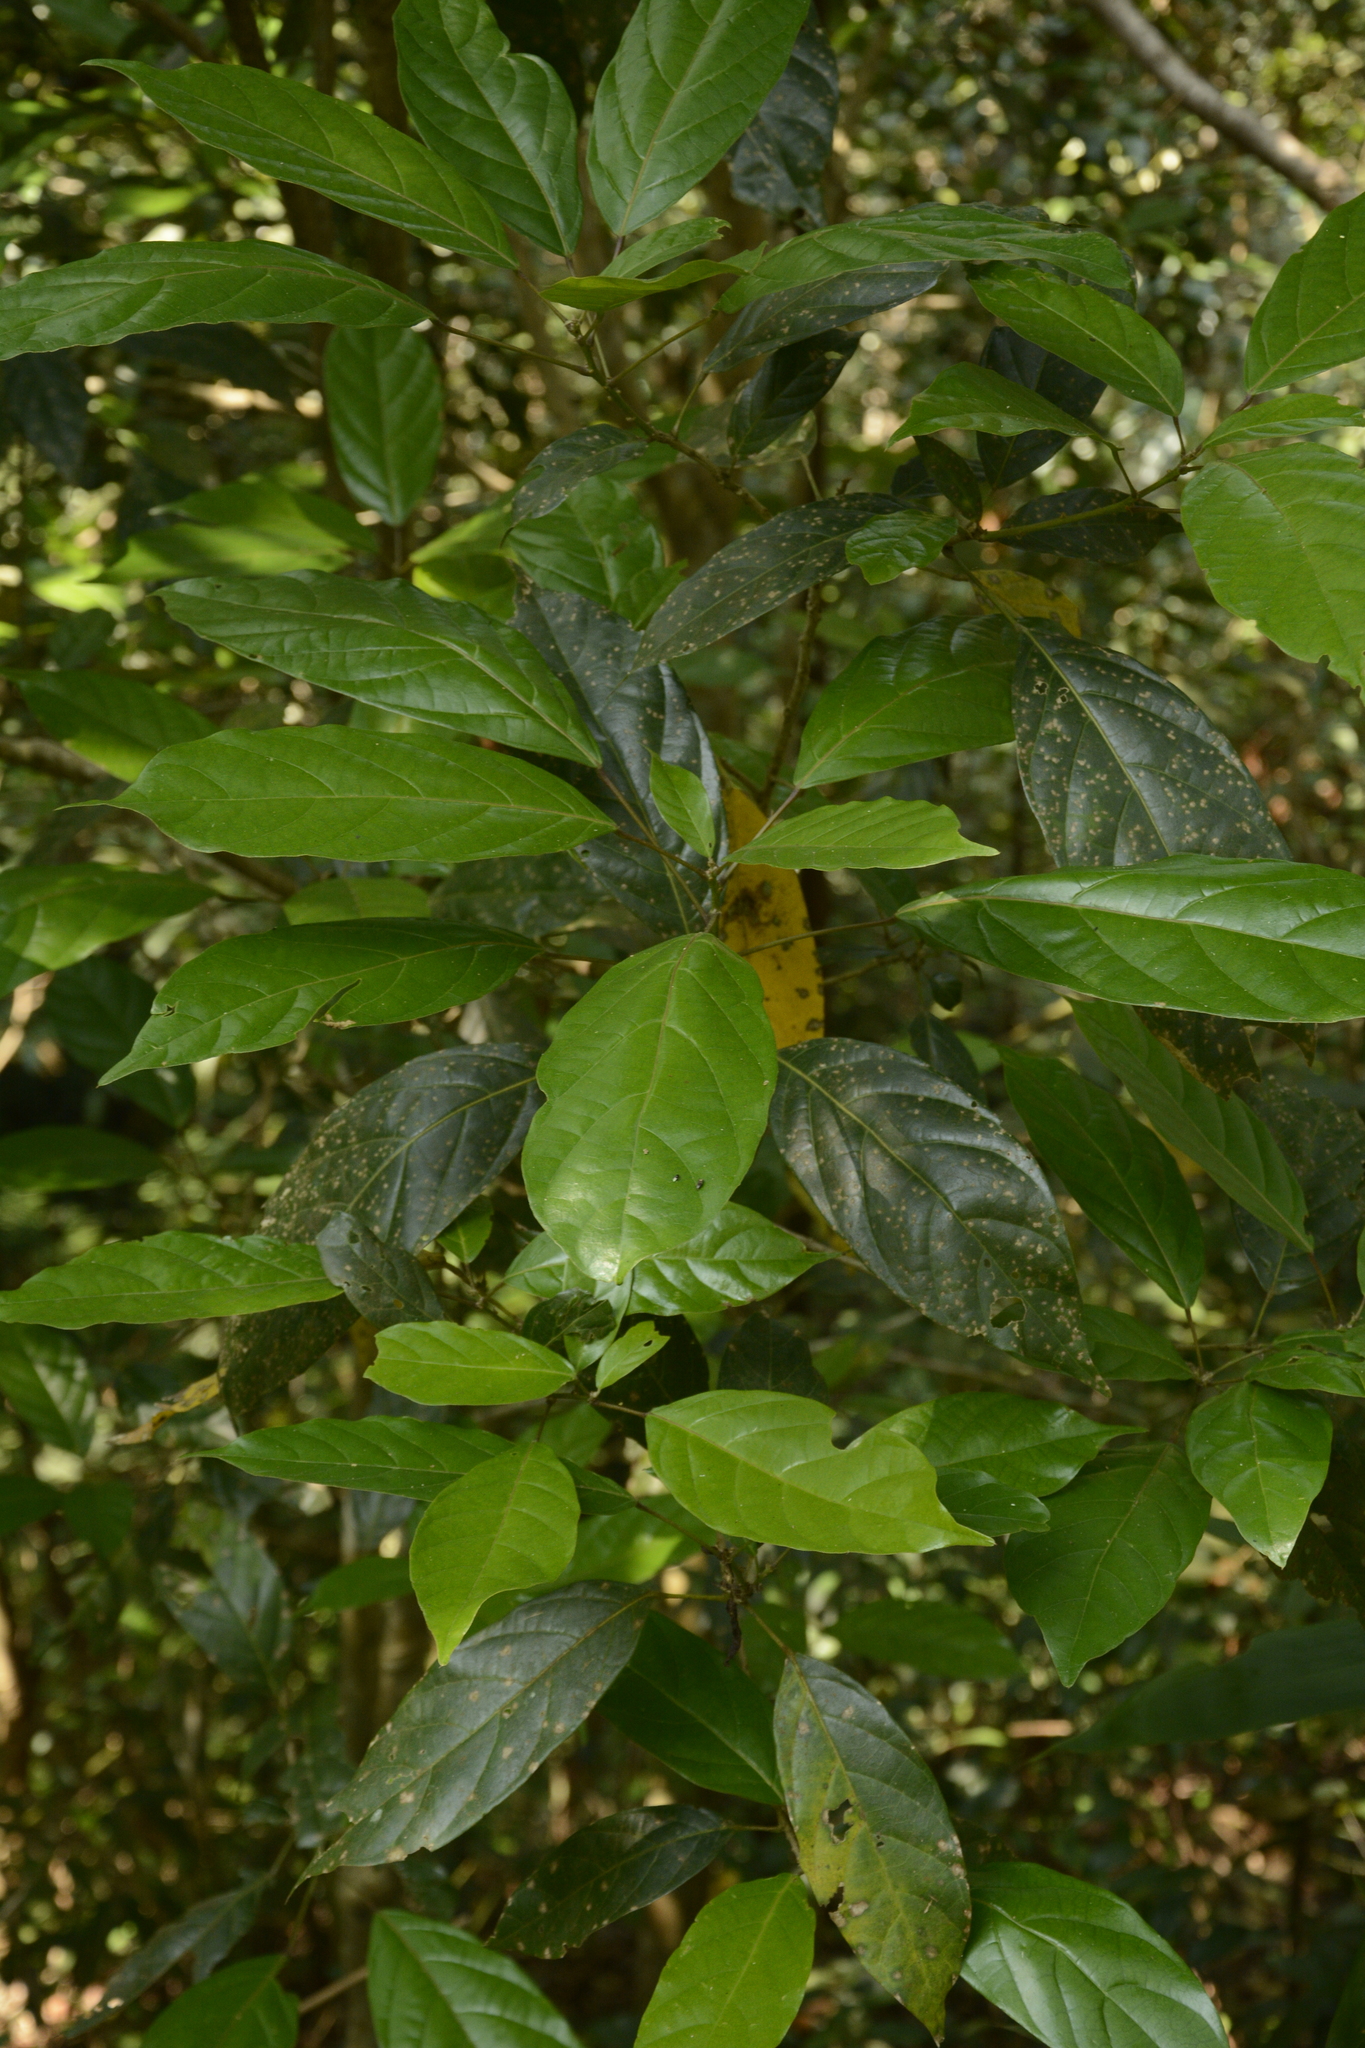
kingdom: Plantae
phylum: Tracheophyta
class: Magnoliopsida
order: Malpighiales
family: Euphorbiaceae
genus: Epiprinus
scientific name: Epiprinus mallotiformis
